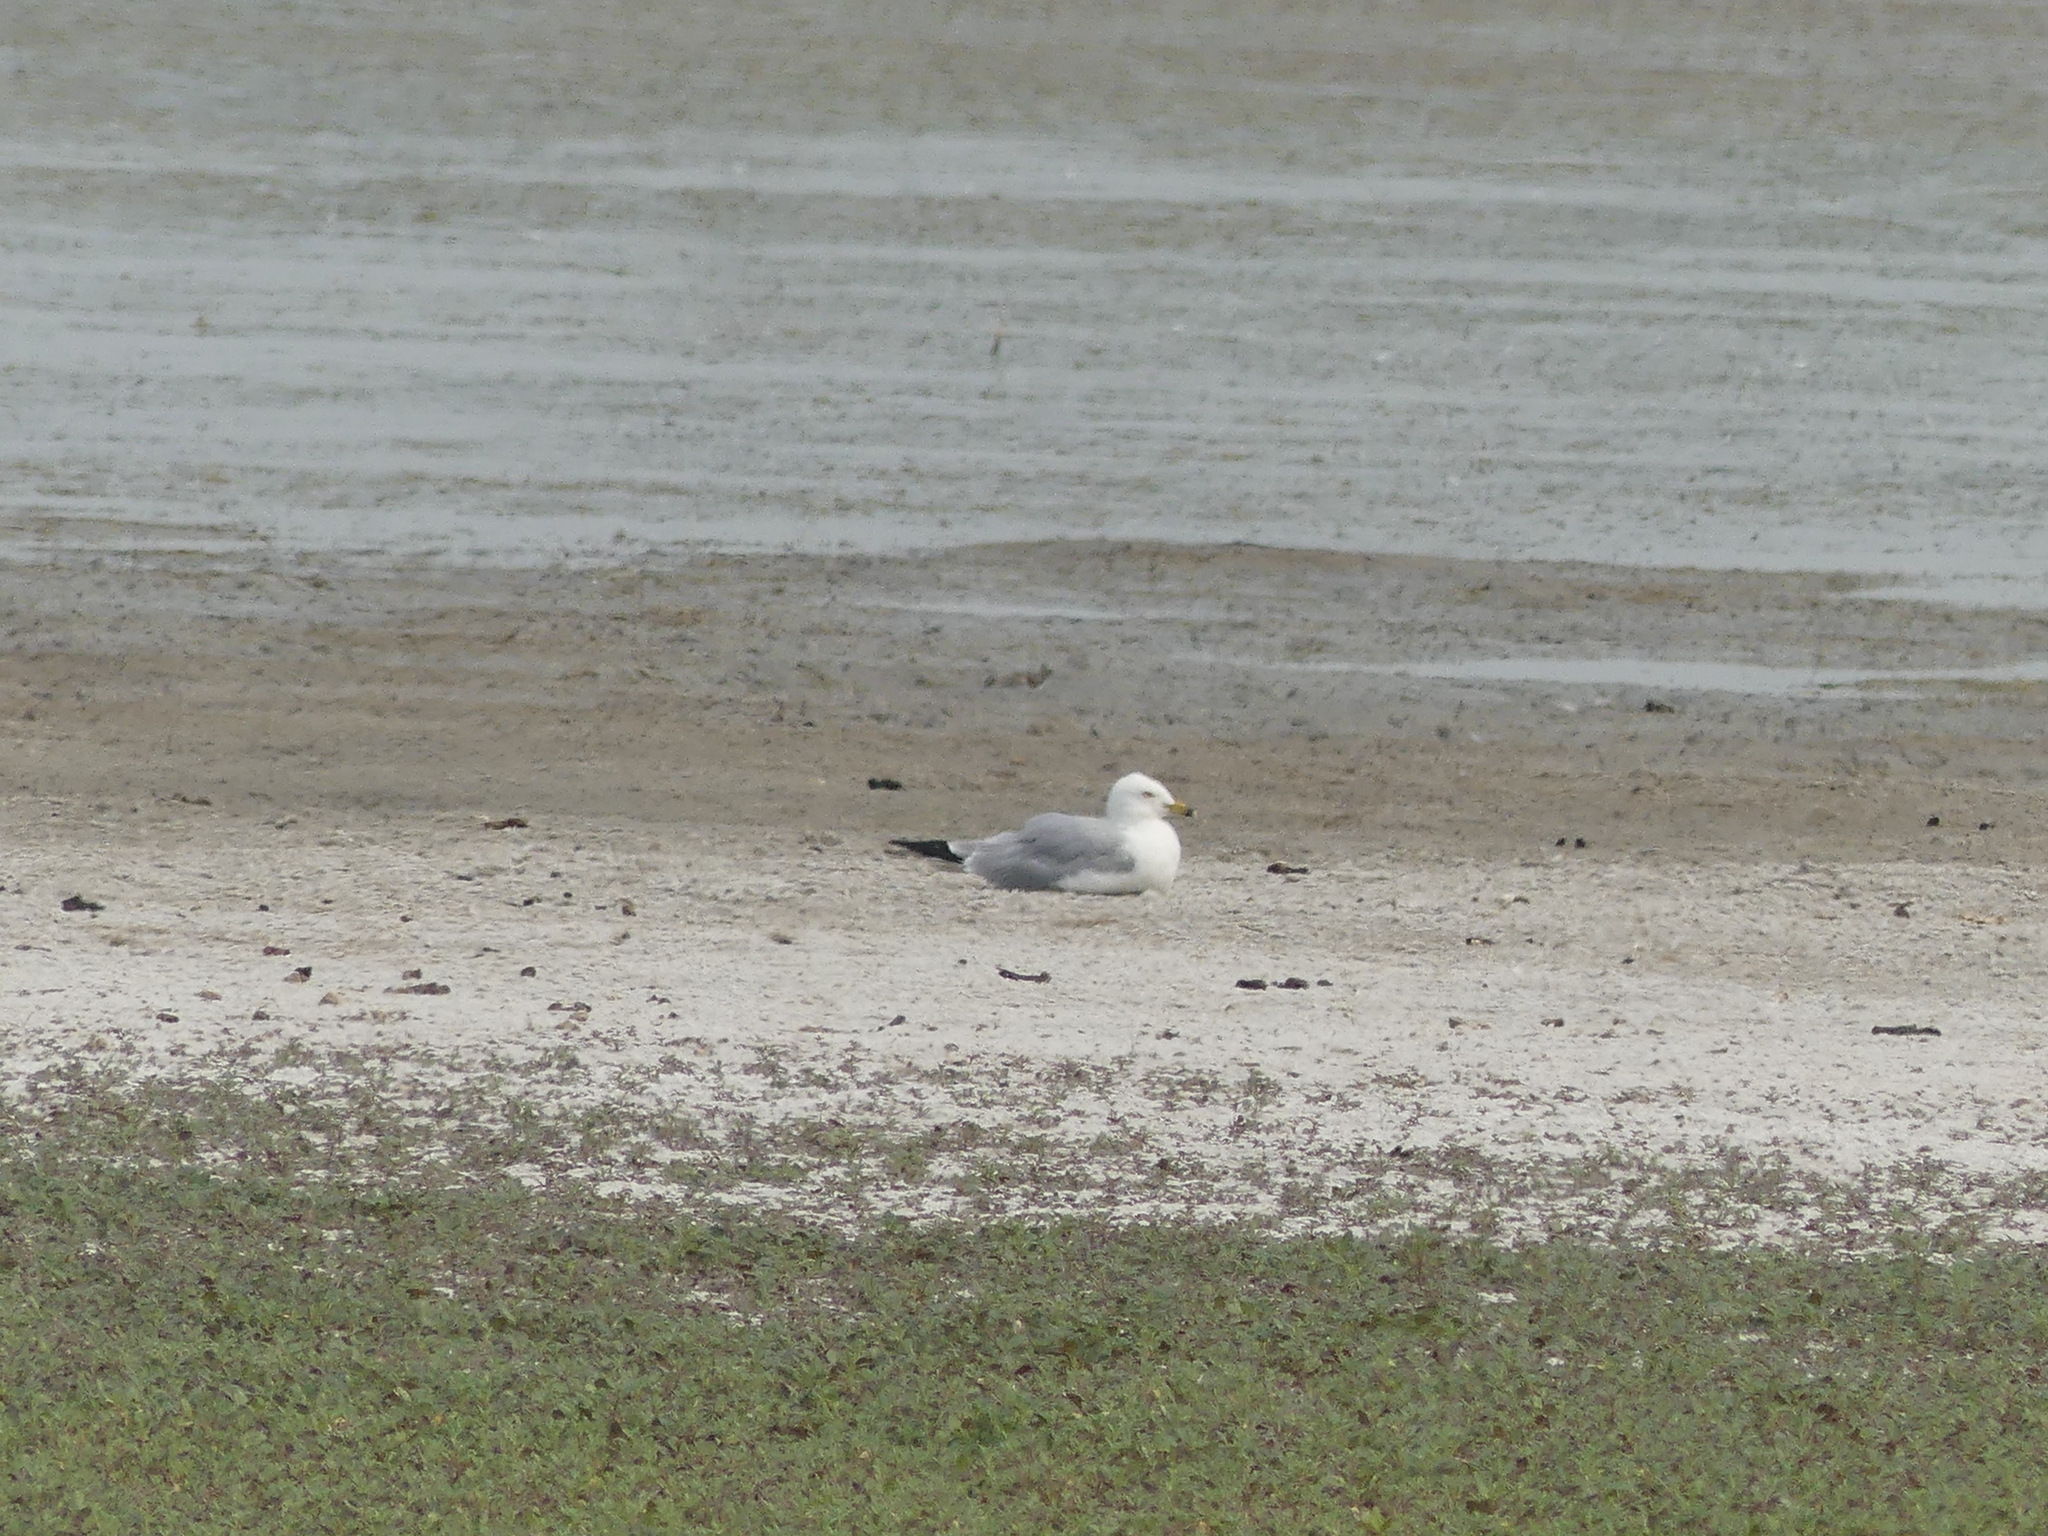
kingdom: Animalia
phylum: Chordata
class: Aves
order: Charadriiformes
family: Laridae
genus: Larus
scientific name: Larus delawarensis
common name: Ring-billed gull
